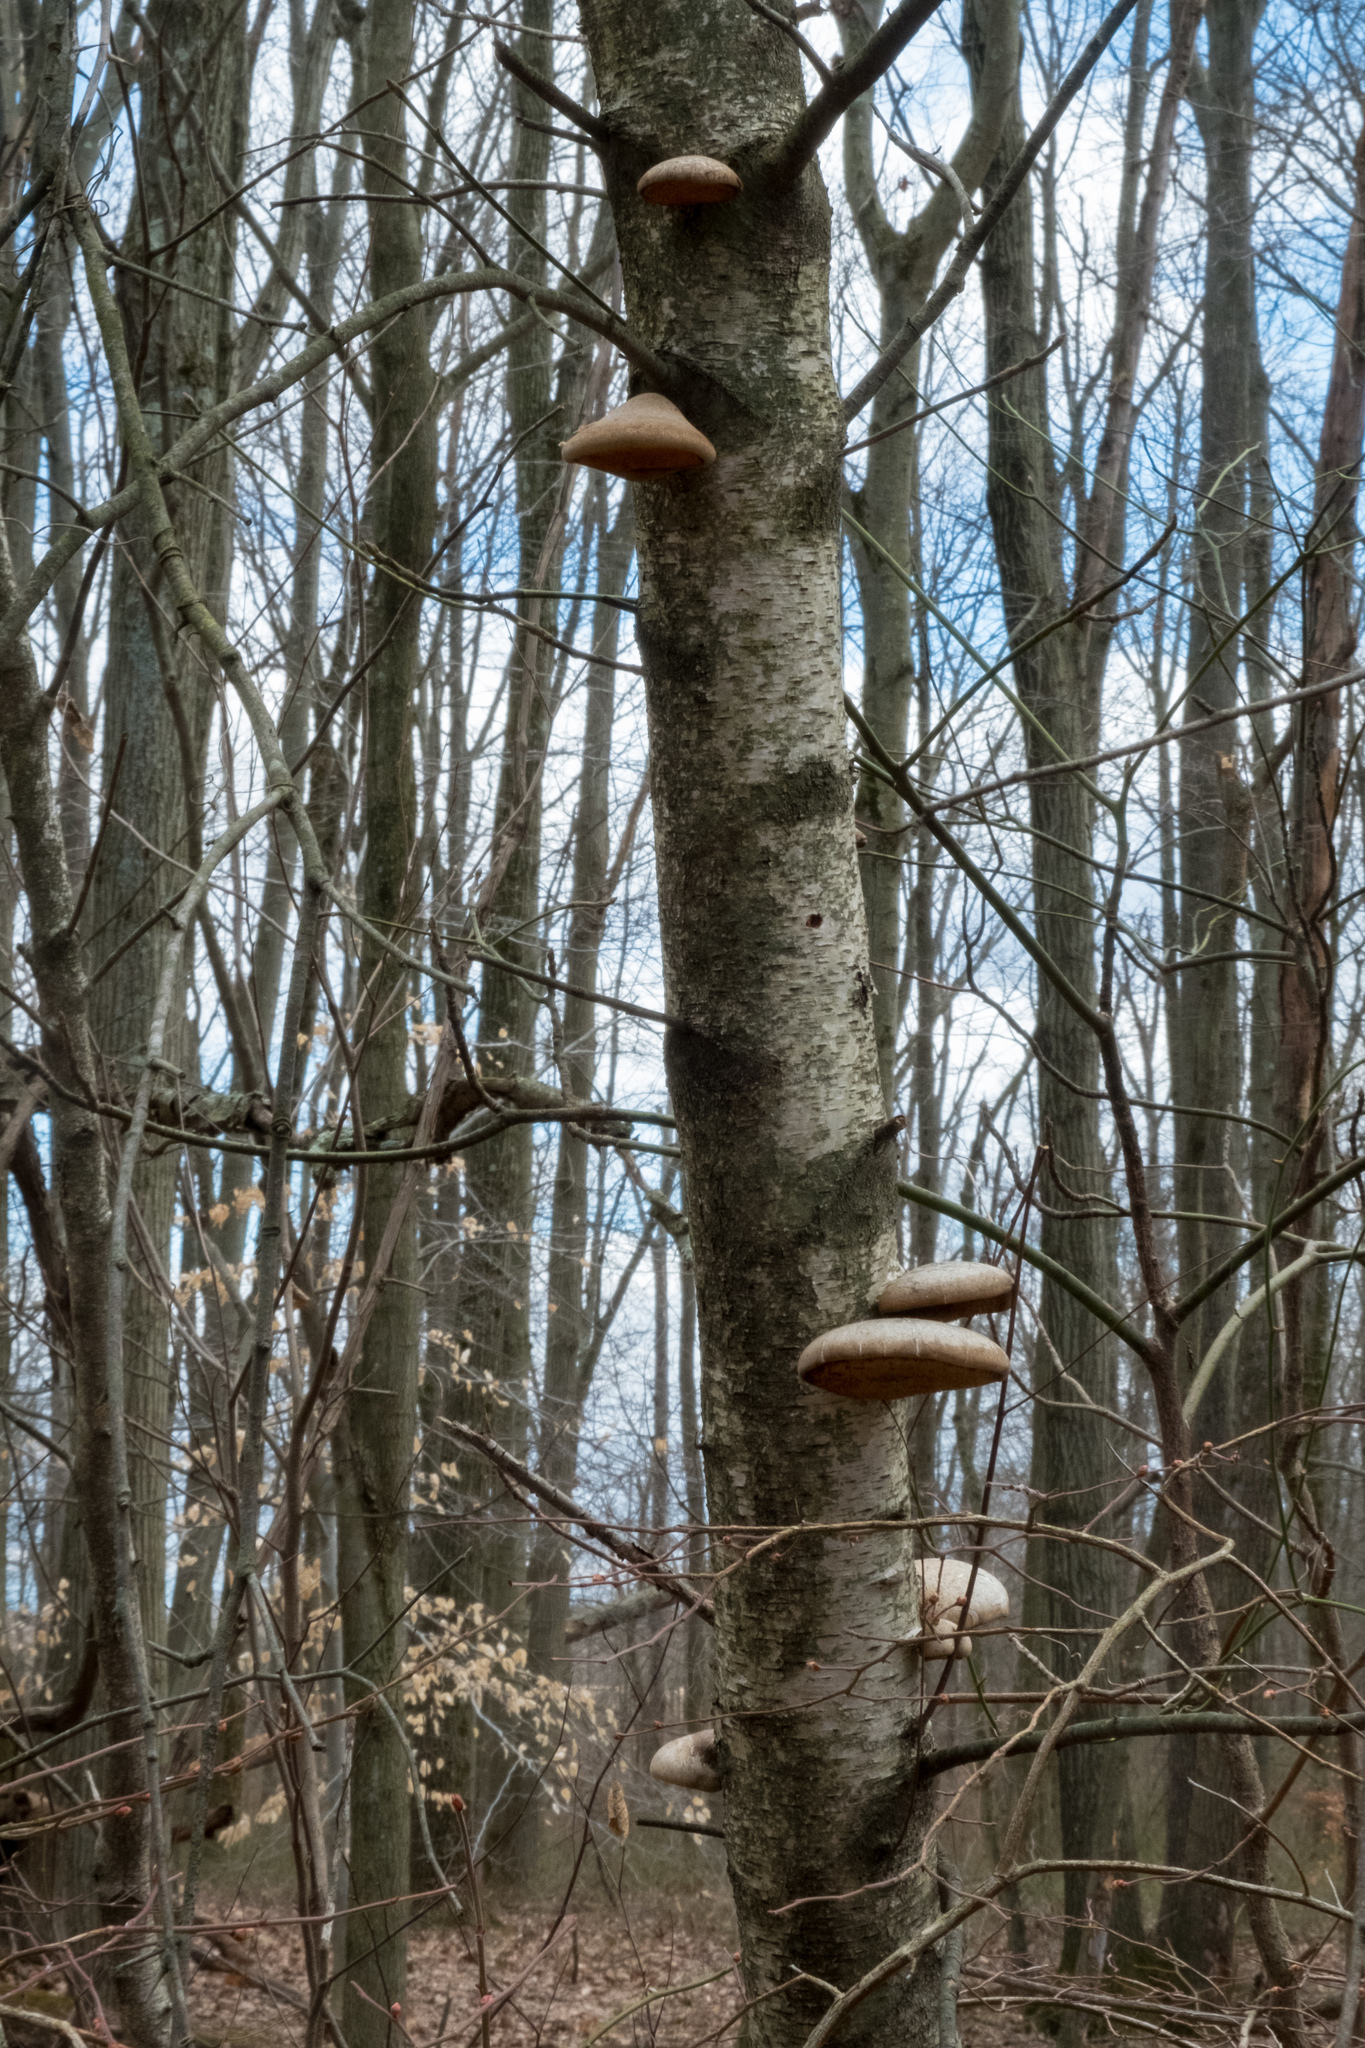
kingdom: Fungi
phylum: Basidiomycota
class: Agaricomycetes
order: Polyporales
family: Fomitopsidaceae
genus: Fomitopsis
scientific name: Fomitopsis betulina
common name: Birch polypore
